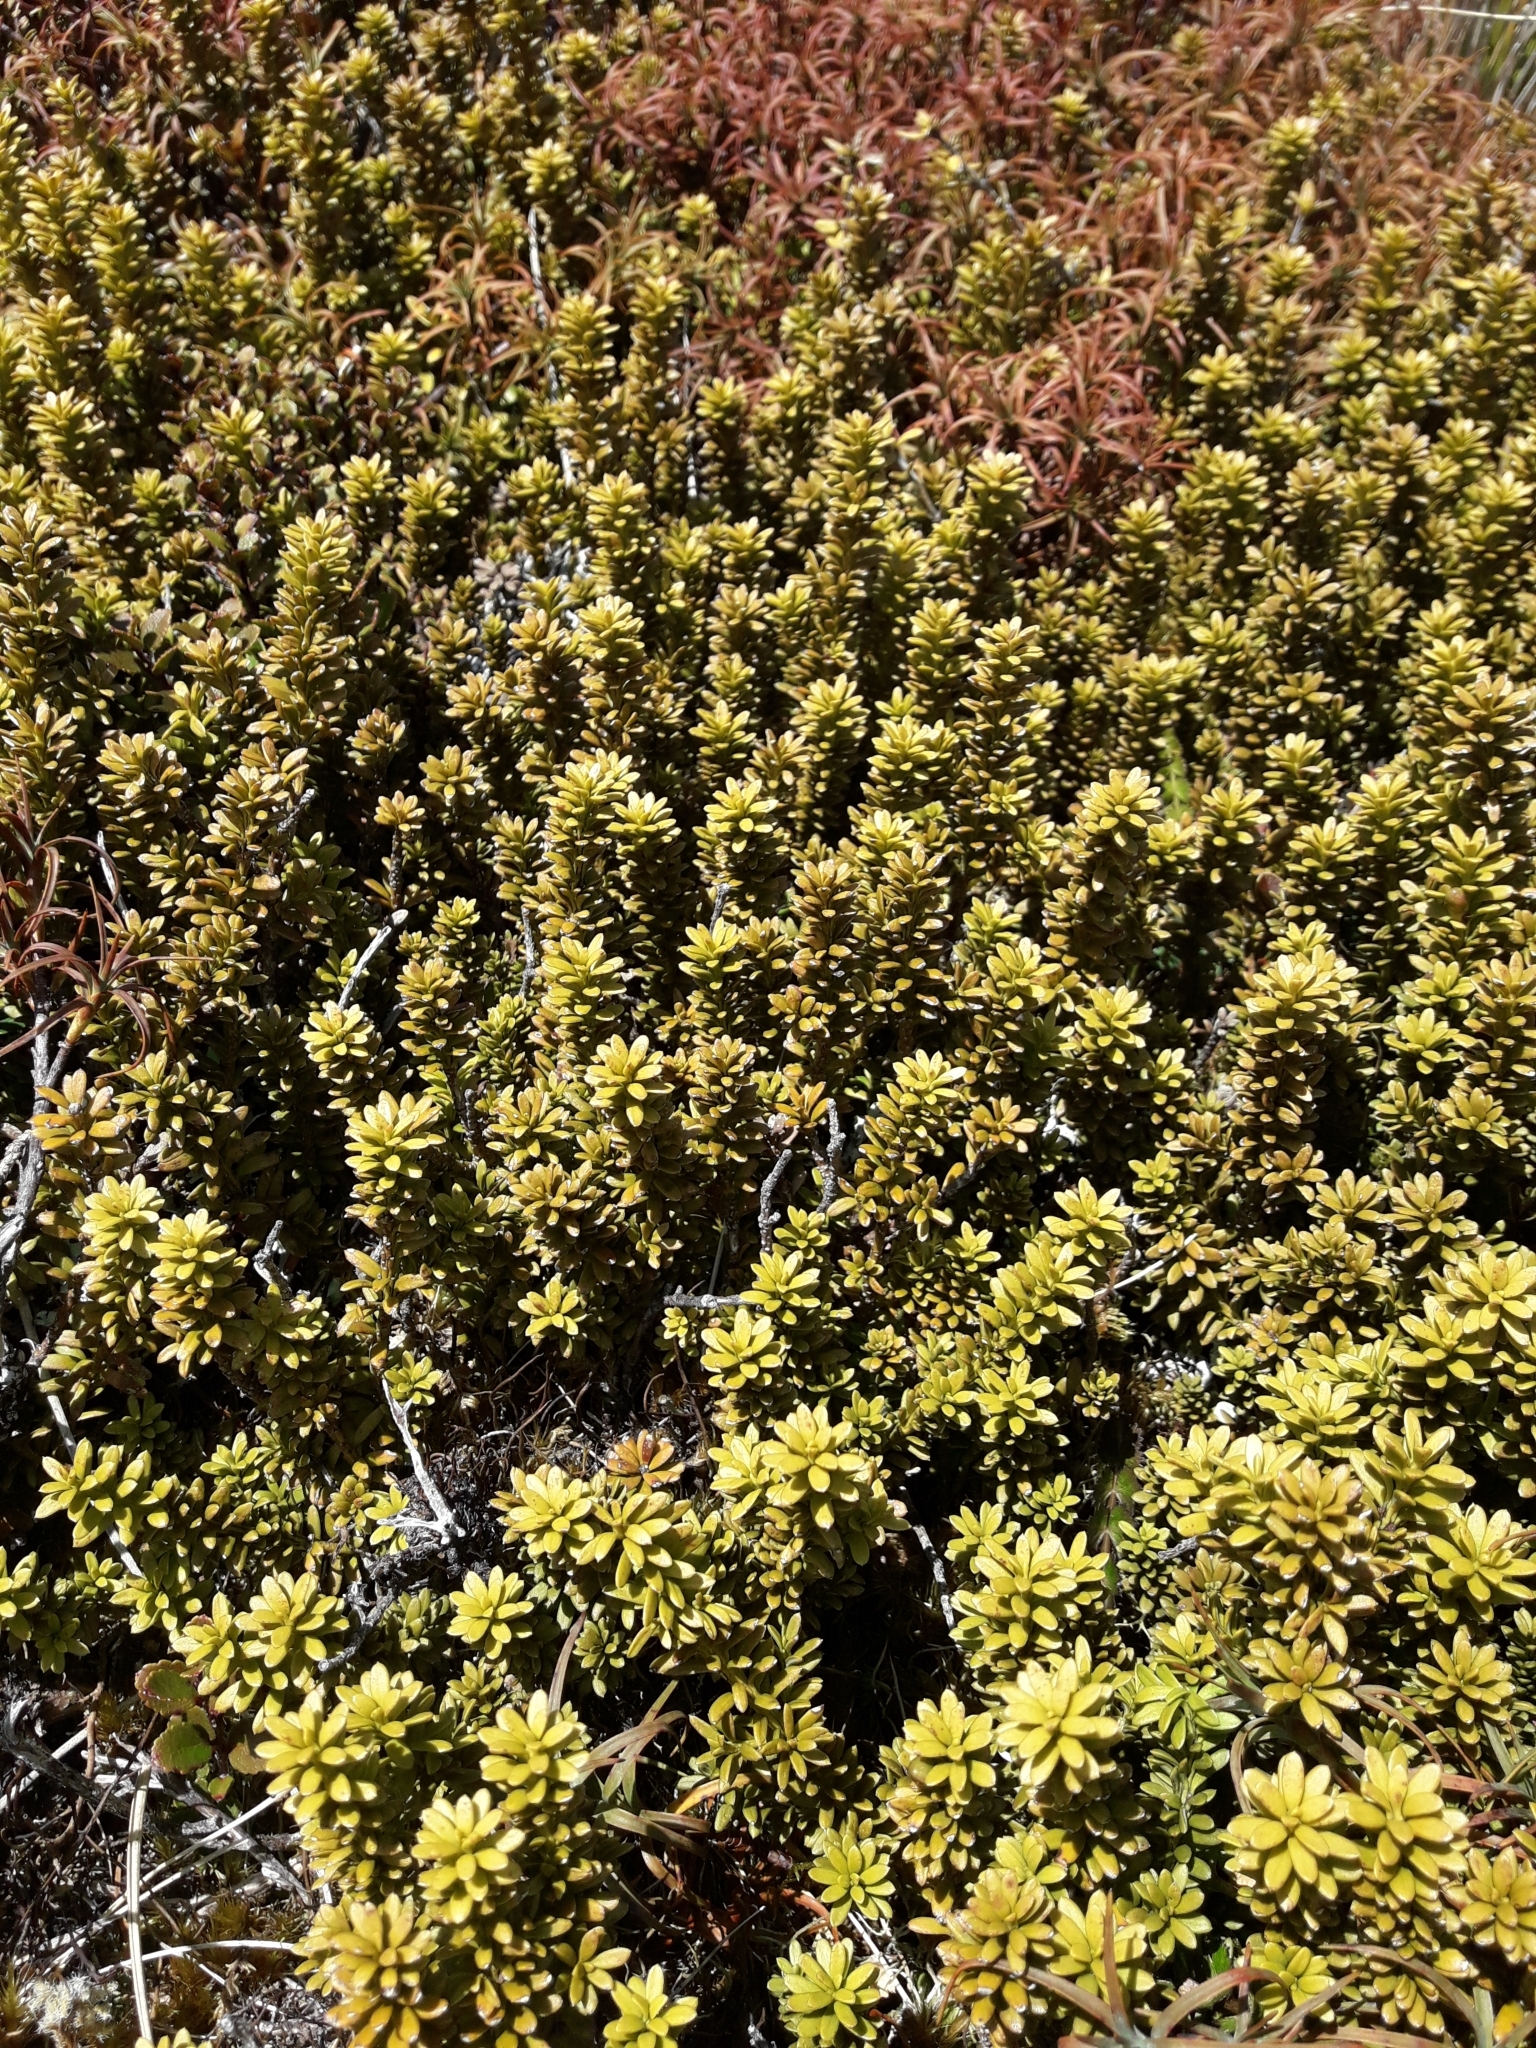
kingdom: Plantae
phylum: Tracheophyta
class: Pinopsida
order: Pinales
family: Podocarpaceae
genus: Podocarpus
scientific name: Podocarpus nivalis
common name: Alpine totara
